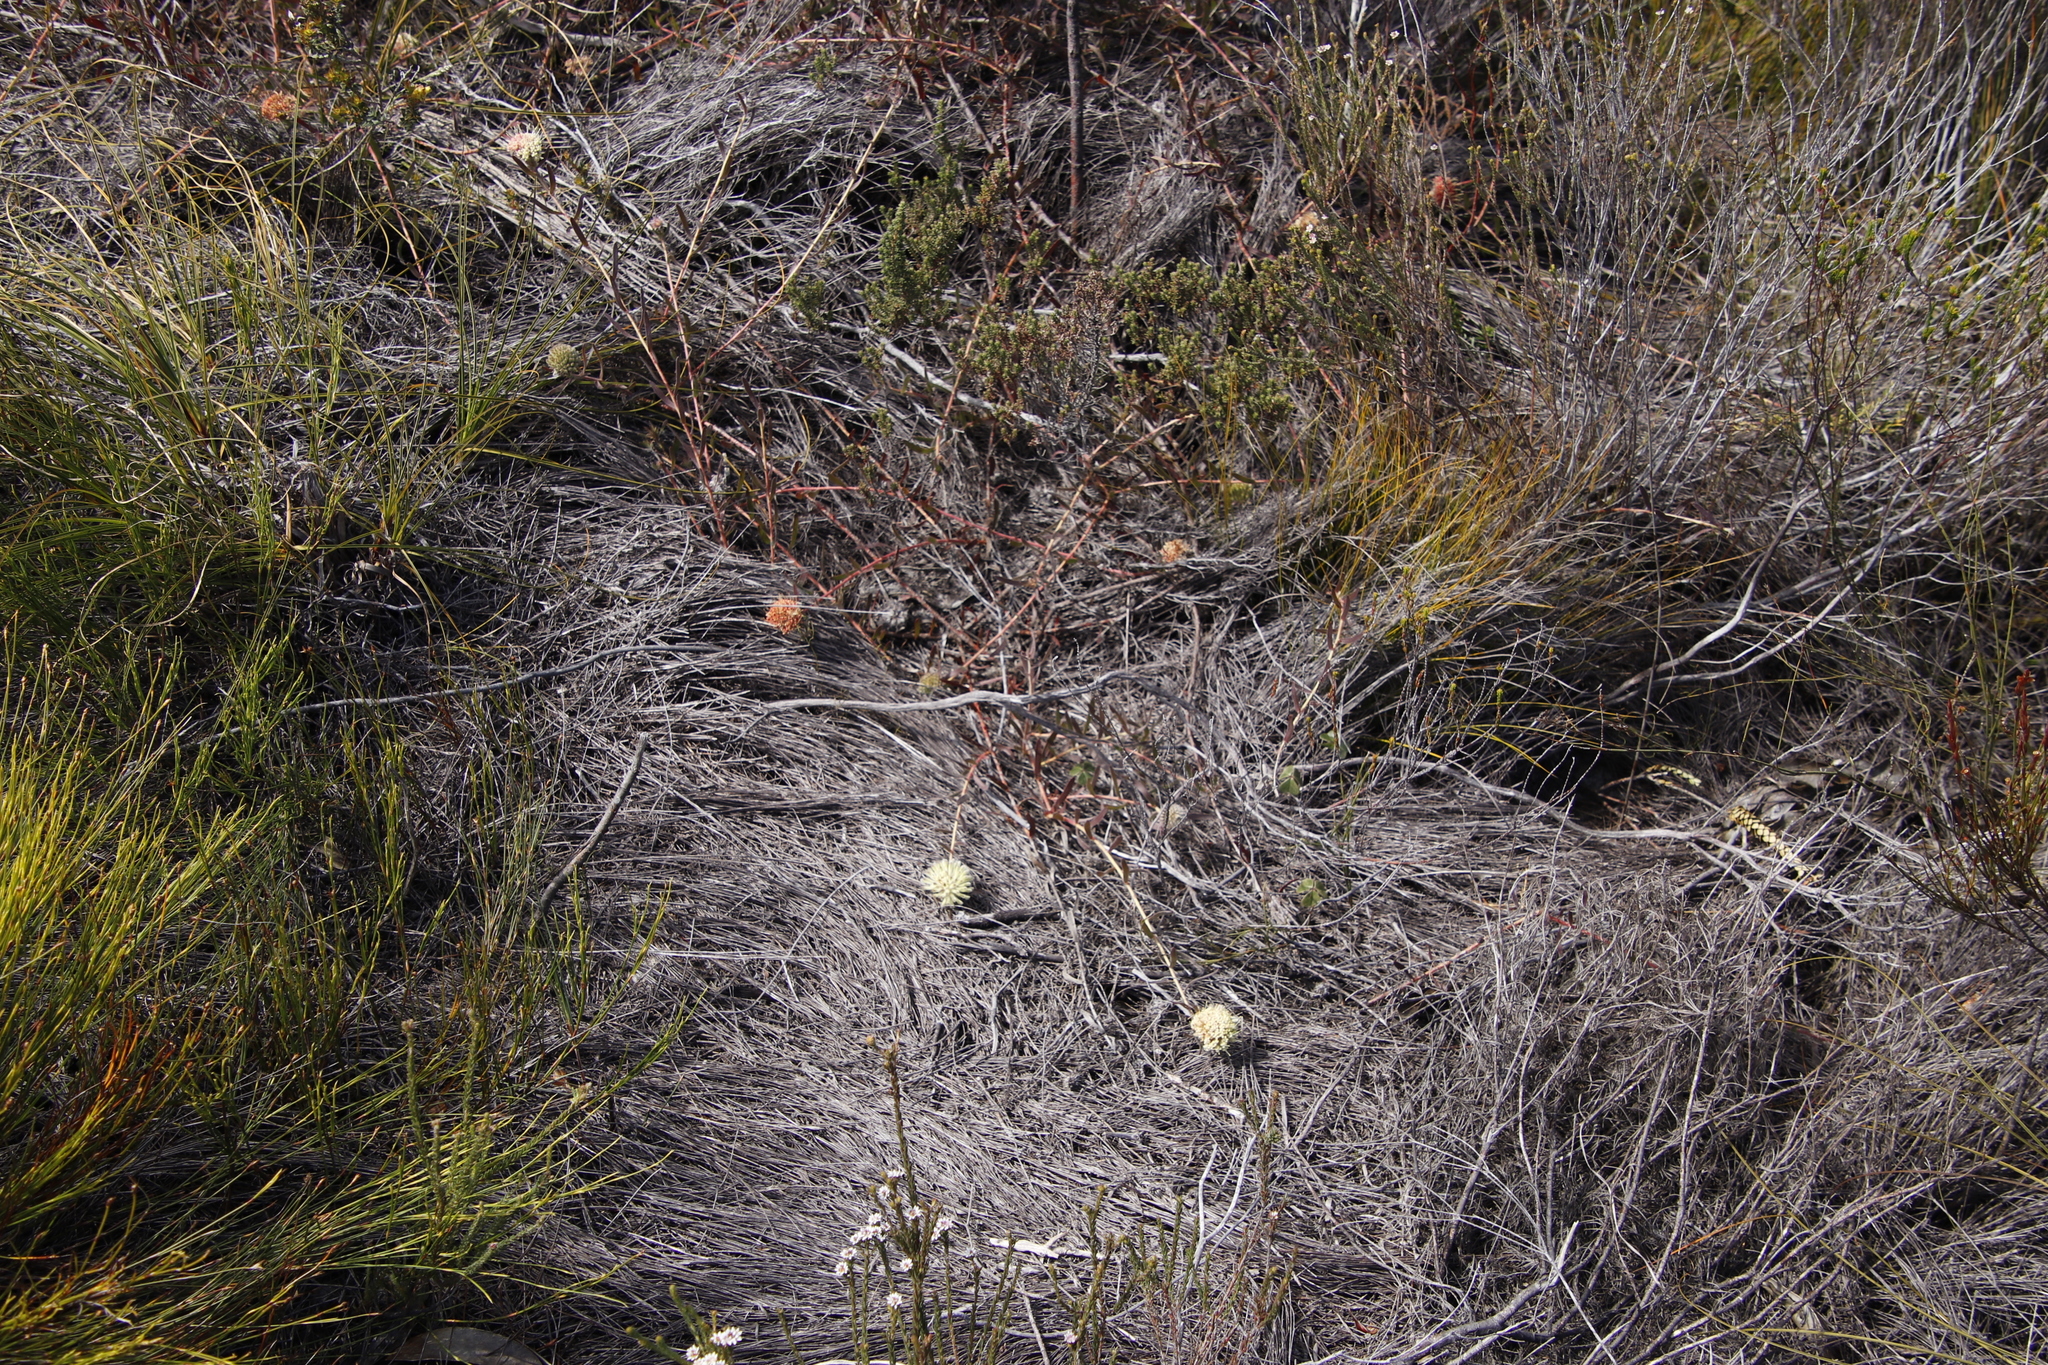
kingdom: Plantae
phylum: Tracheophyta
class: Magnoliopsida
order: Proteales
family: Proteaceae
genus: Leucospermum
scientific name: Leucospermum pedunculatum
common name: White-trailing pincushion
